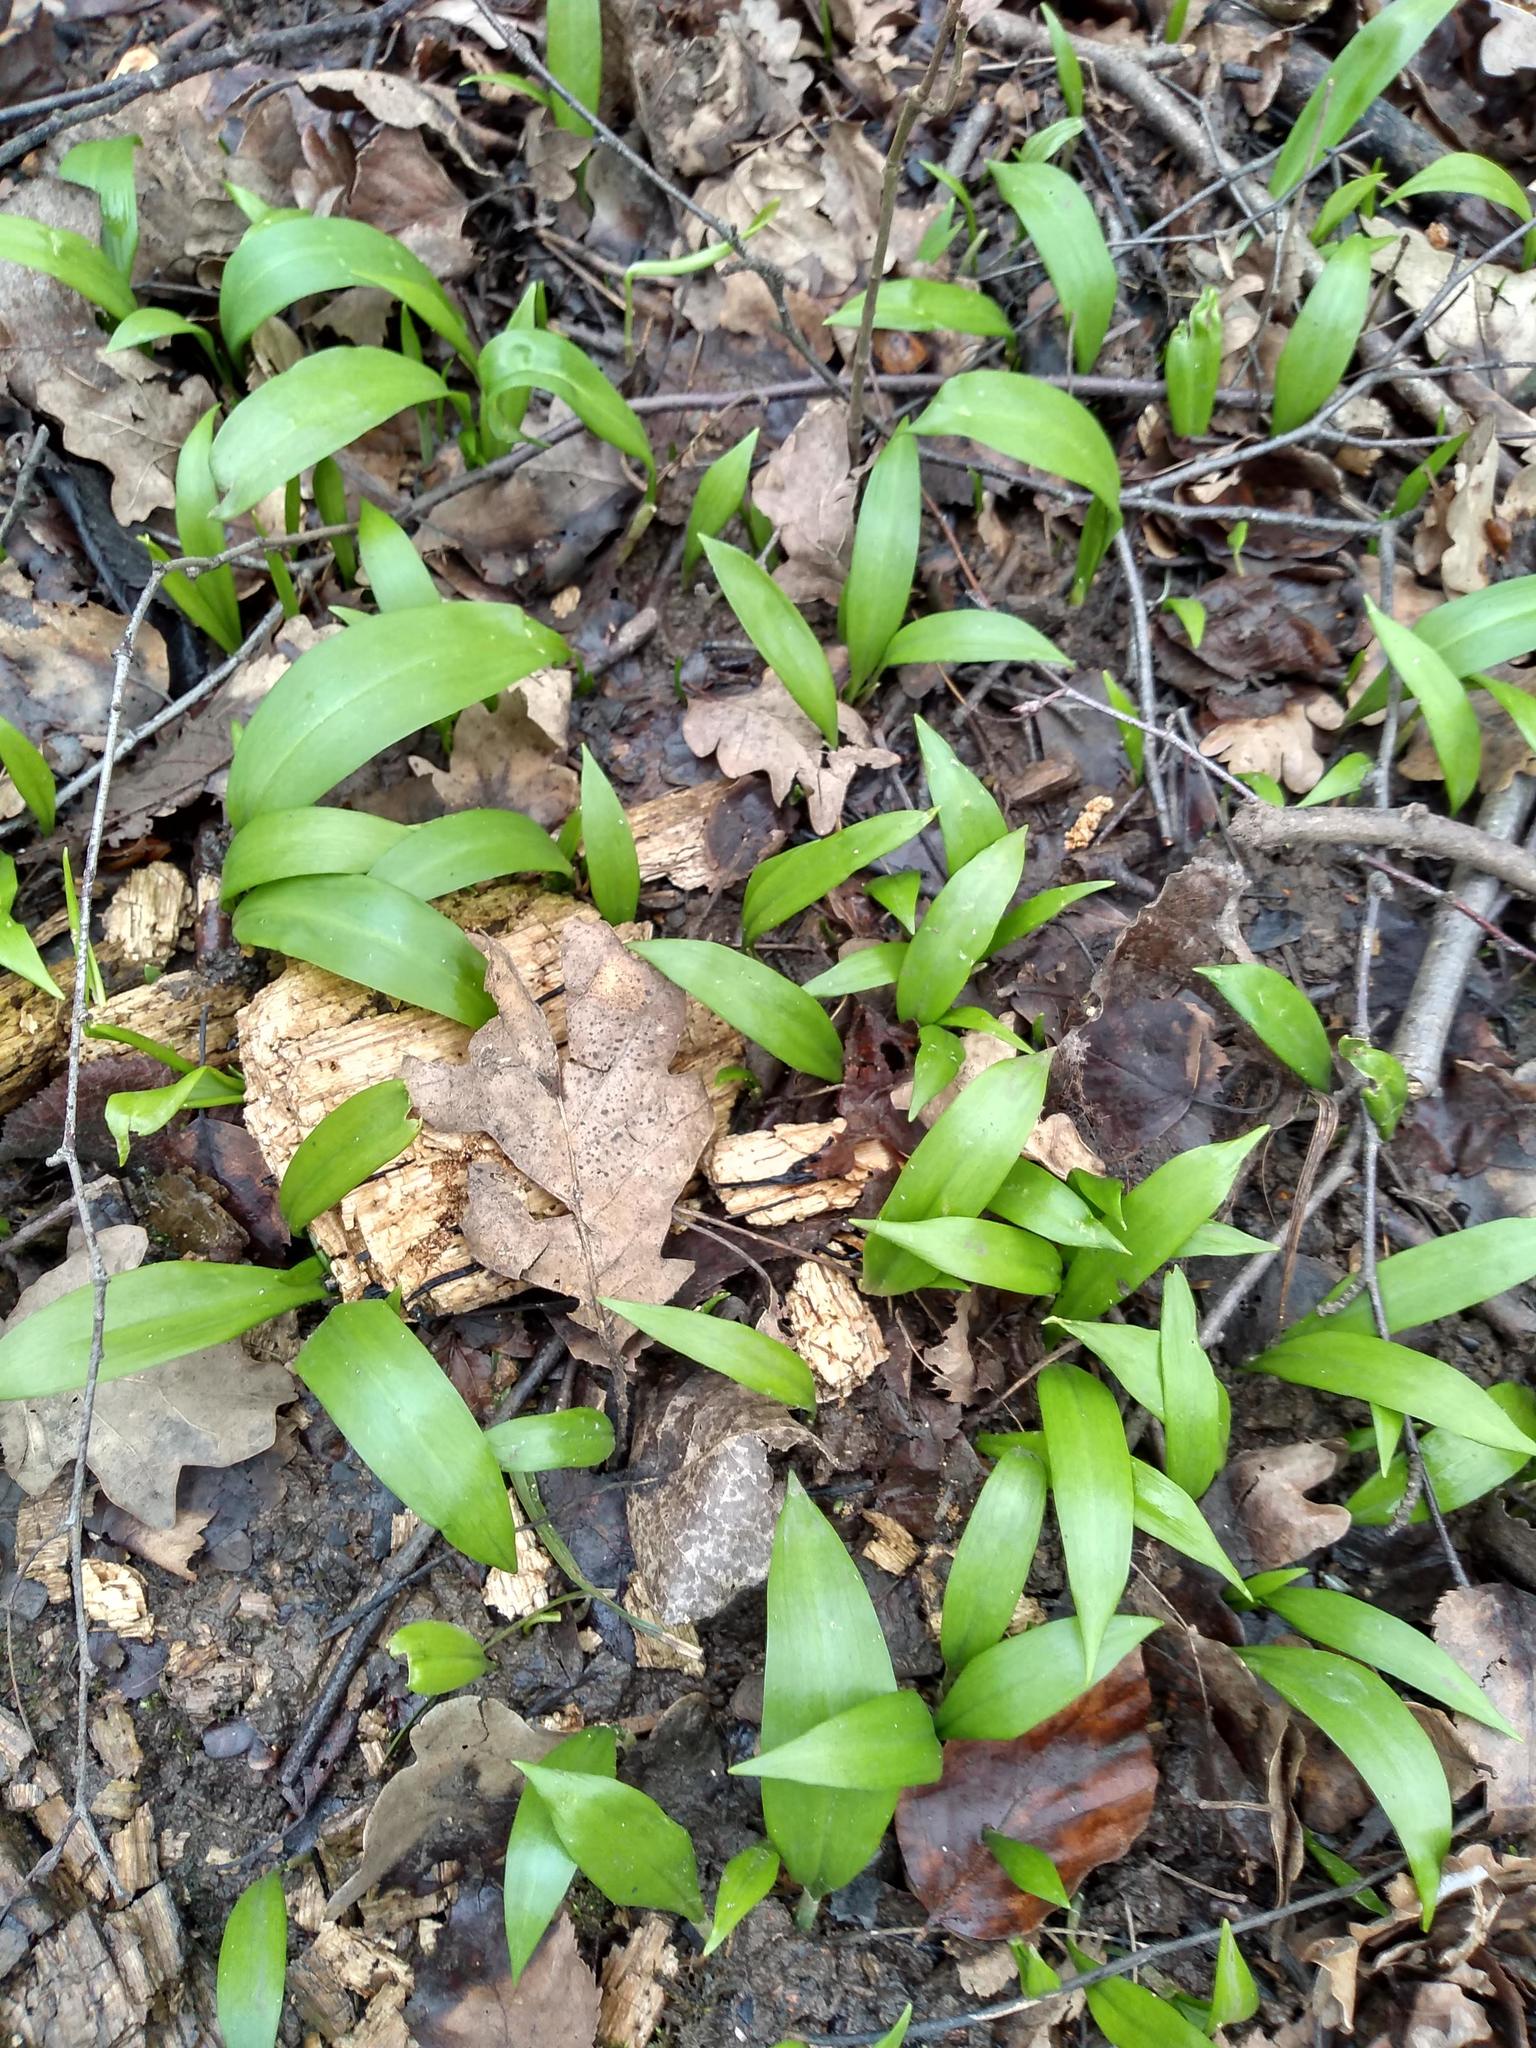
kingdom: Plantae
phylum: Tracheophyta
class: Liliopsida
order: Asparagales
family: Amaryllidaceae
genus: Allium
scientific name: Allium ursinum
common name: Ramsons
